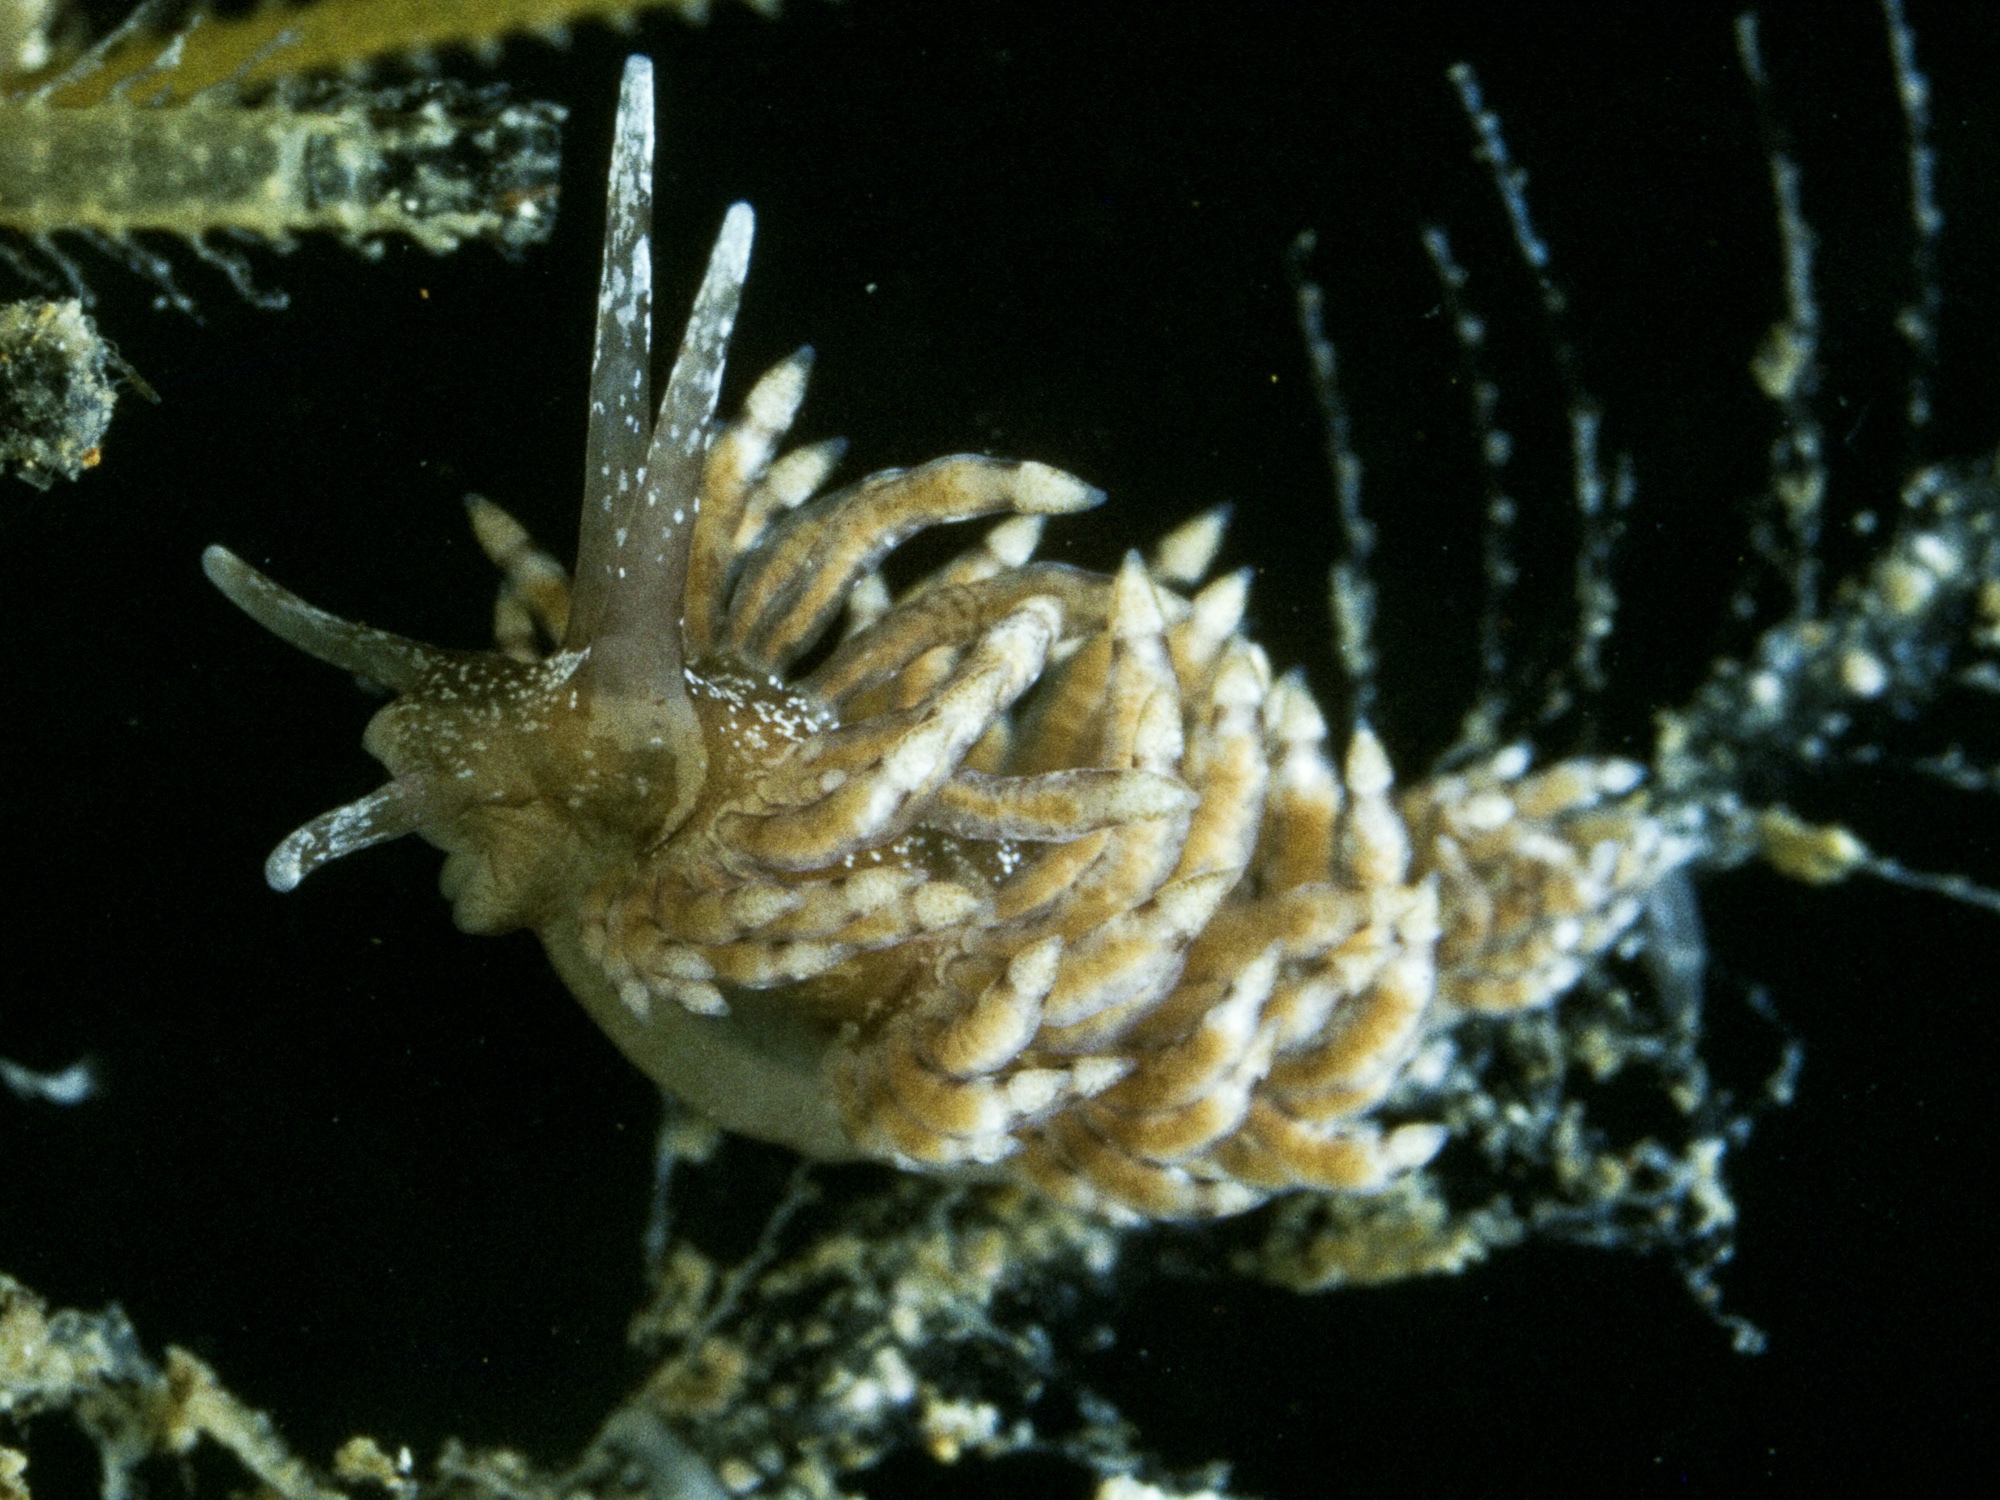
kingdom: Animalia
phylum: Mollusca
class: Gastropoda
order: Nudibranchia
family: Eubranchidae
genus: Eubranchus
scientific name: Eubranchus vittatus
